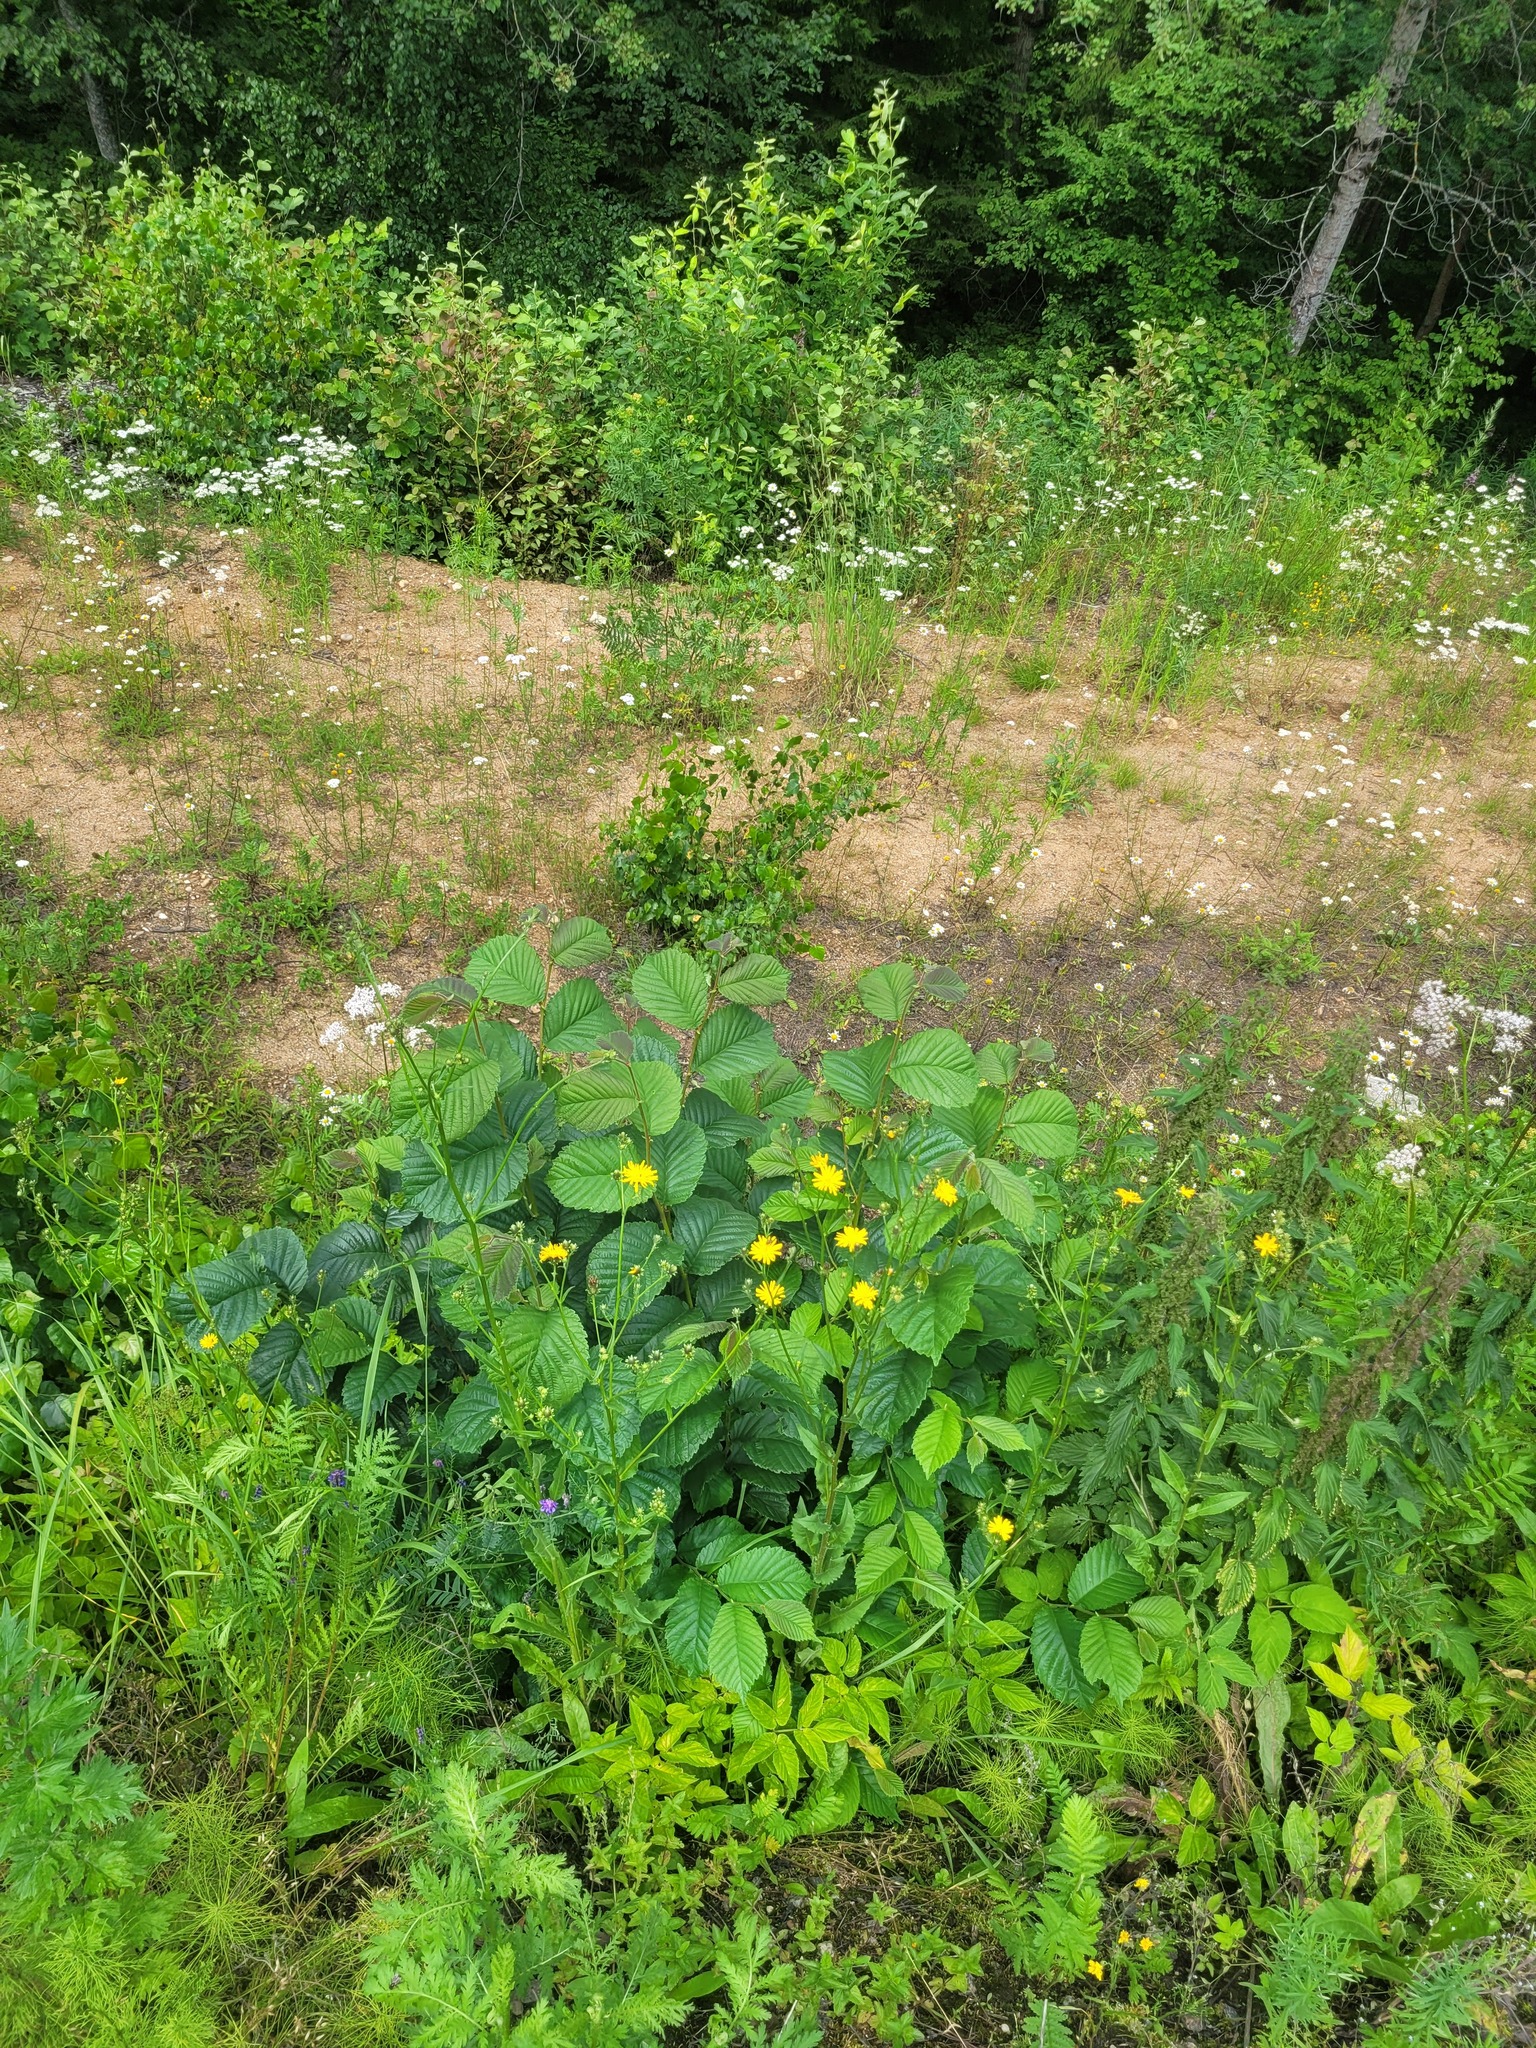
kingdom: Plantae
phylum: Tracheophyta
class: Magnoliopsida
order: Rosales
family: Ulmaceae
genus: Ulmus
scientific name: Ulmus glabra
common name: Wych elm
